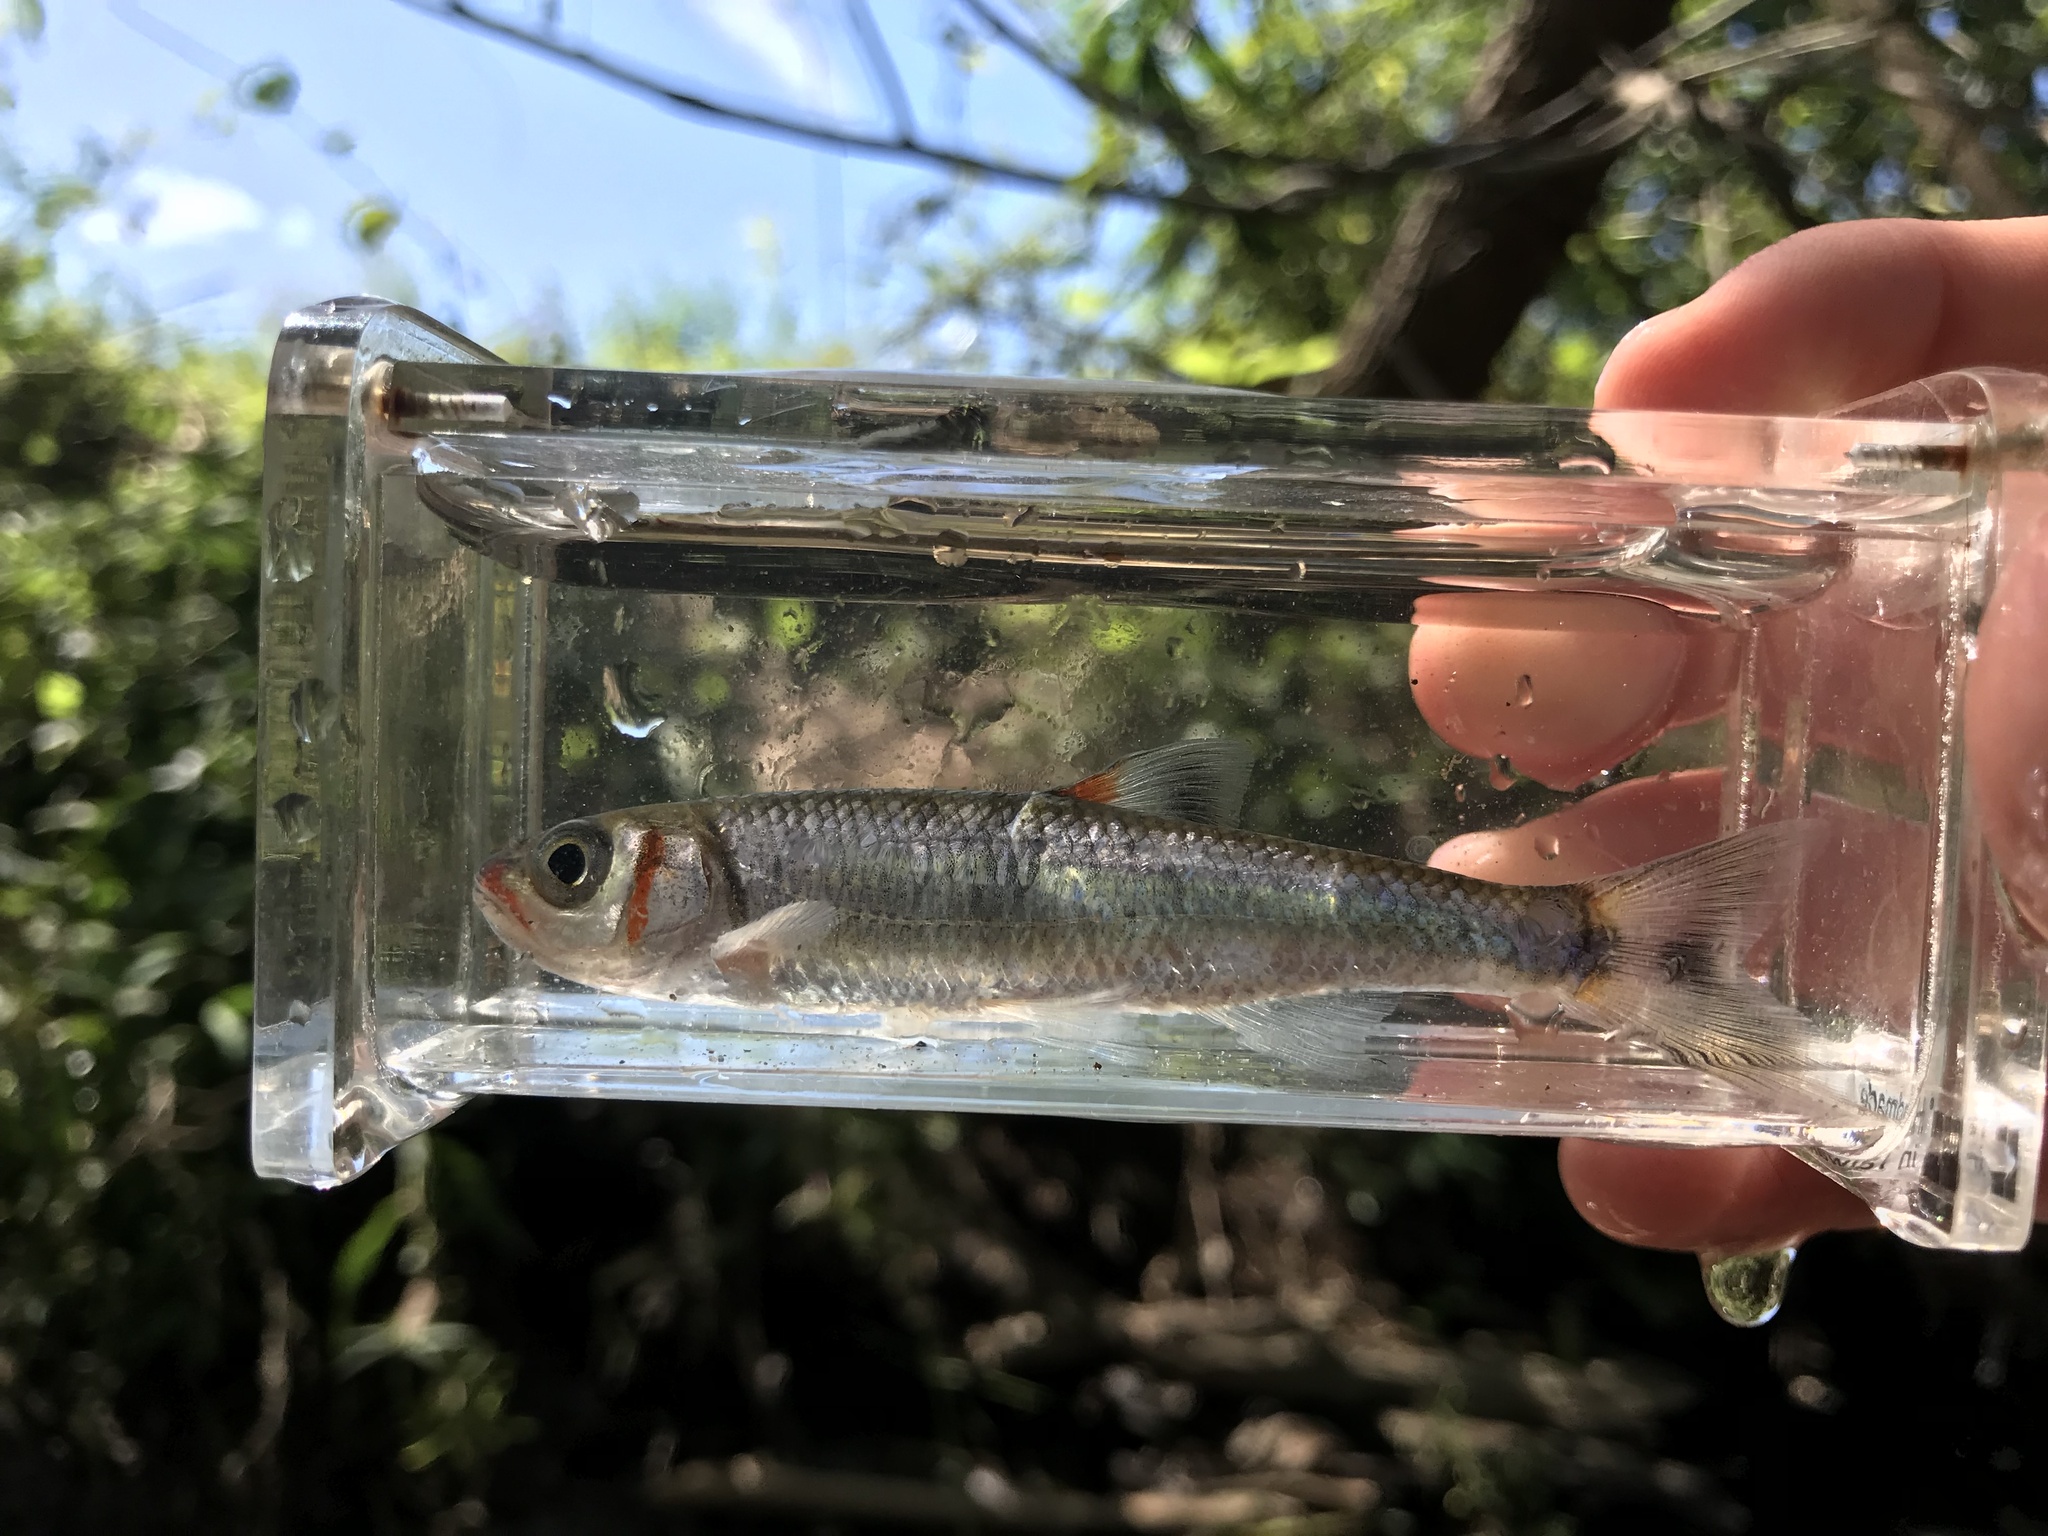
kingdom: Animalia
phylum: Chordata
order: Cypriniformes
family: Cyprinidae
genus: Luxilus
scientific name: Luxilus
